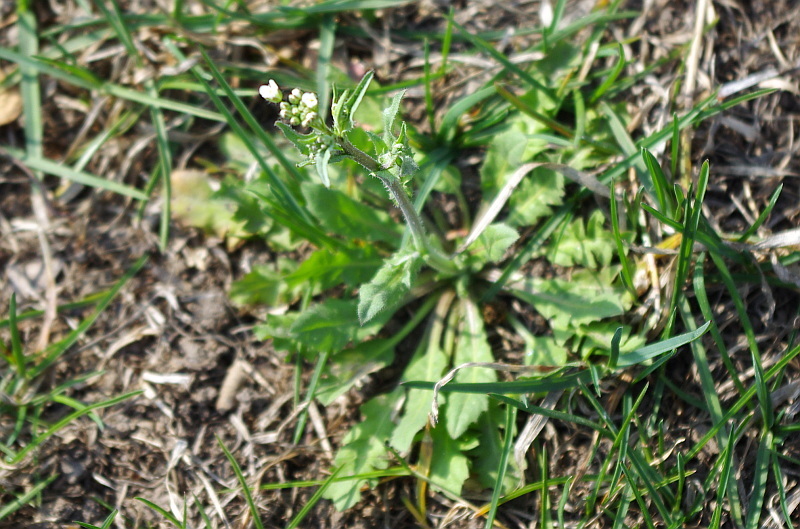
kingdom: Plantae
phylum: Tracheophyta
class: Magnoliopsida
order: Brassicales
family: Brassicaceae
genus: Capsella
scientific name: Capsella bursa-pastoris
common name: Shepherd's purse
